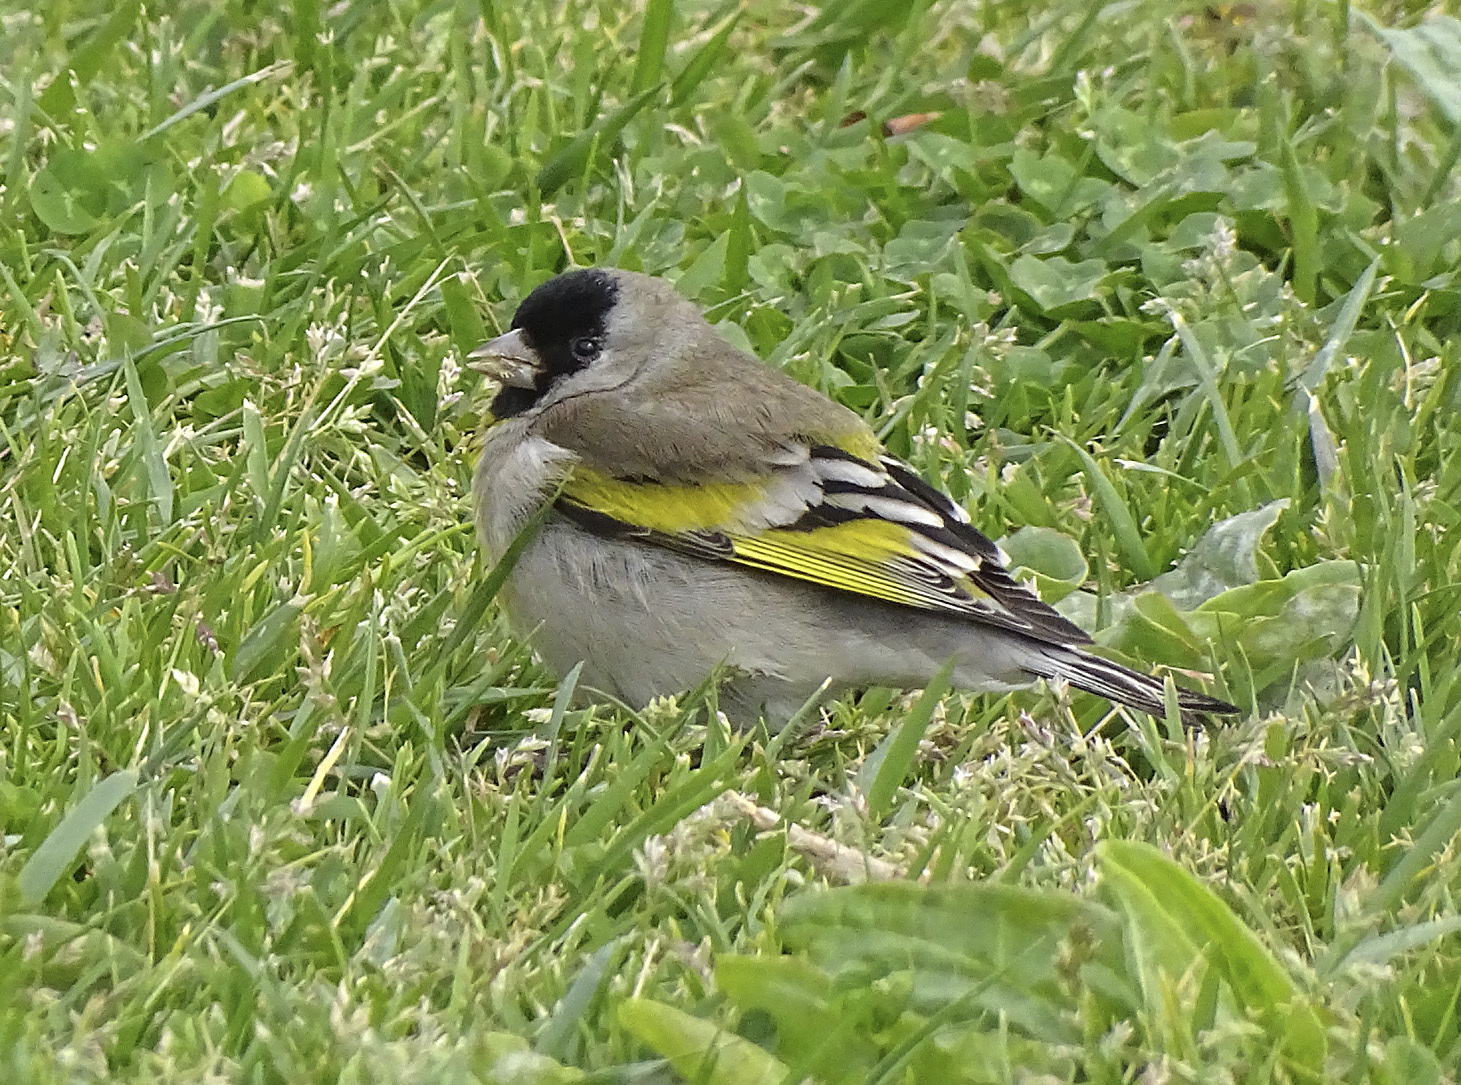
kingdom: Animalia
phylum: Chordata
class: Aves
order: Passeriformes
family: Fringillidae
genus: Spinus
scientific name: Spinus lawrencei
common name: Lawrence's goldfinch
